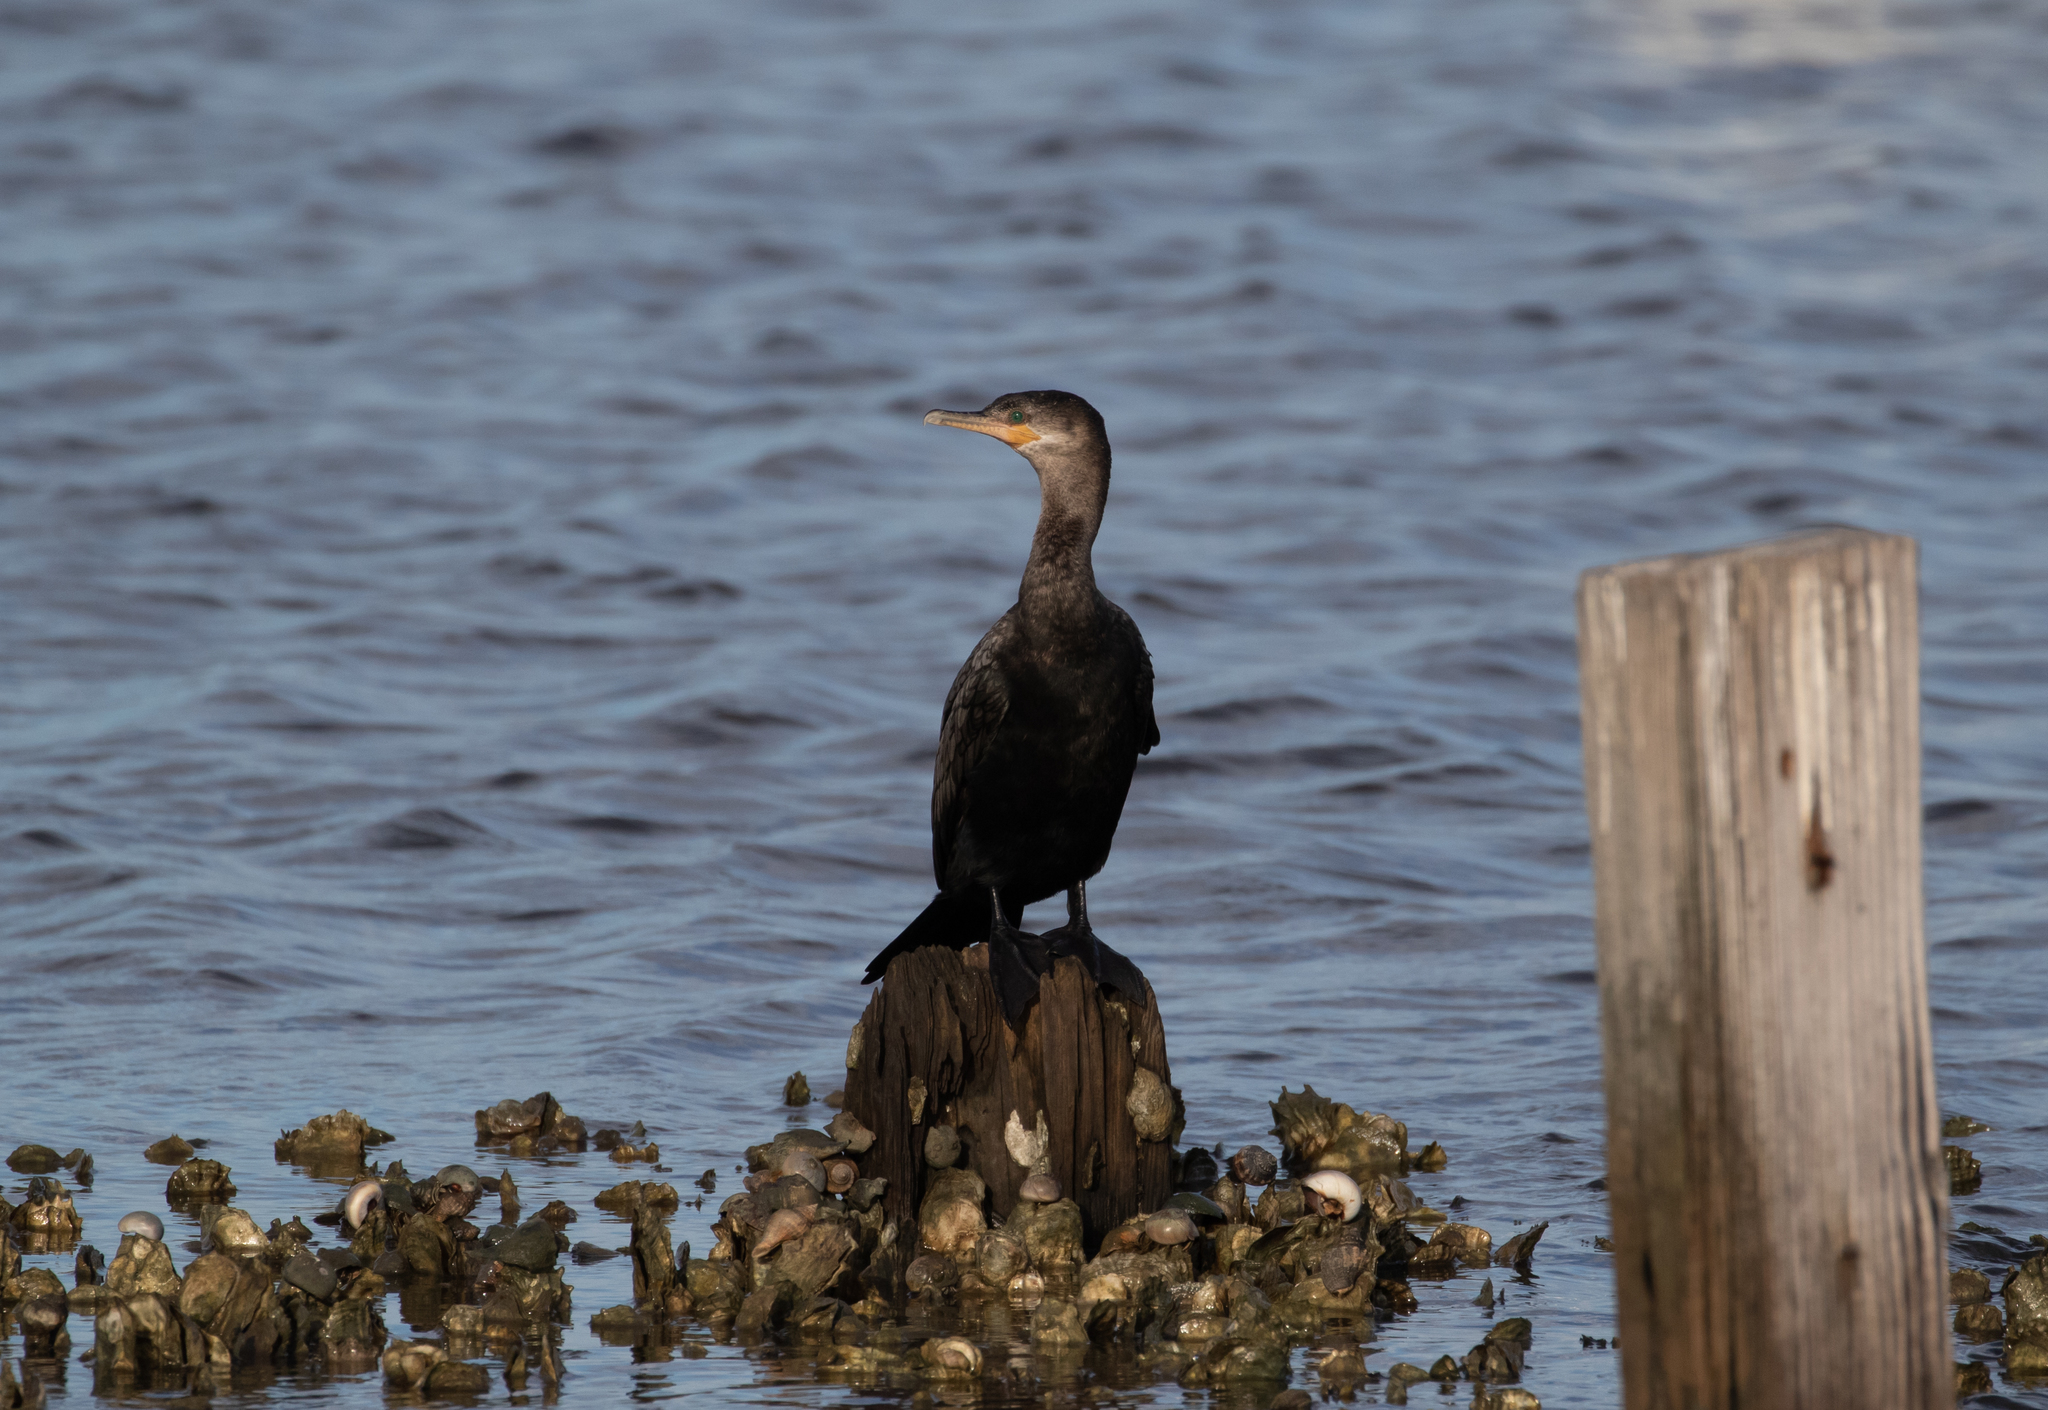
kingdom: Animalia
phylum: Chordata
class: Aves
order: Suliformes
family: Phalacrocoracidae
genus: Phalacrocorax
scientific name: Phalacrocorax brasilianus
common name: Neotropic cormorant
